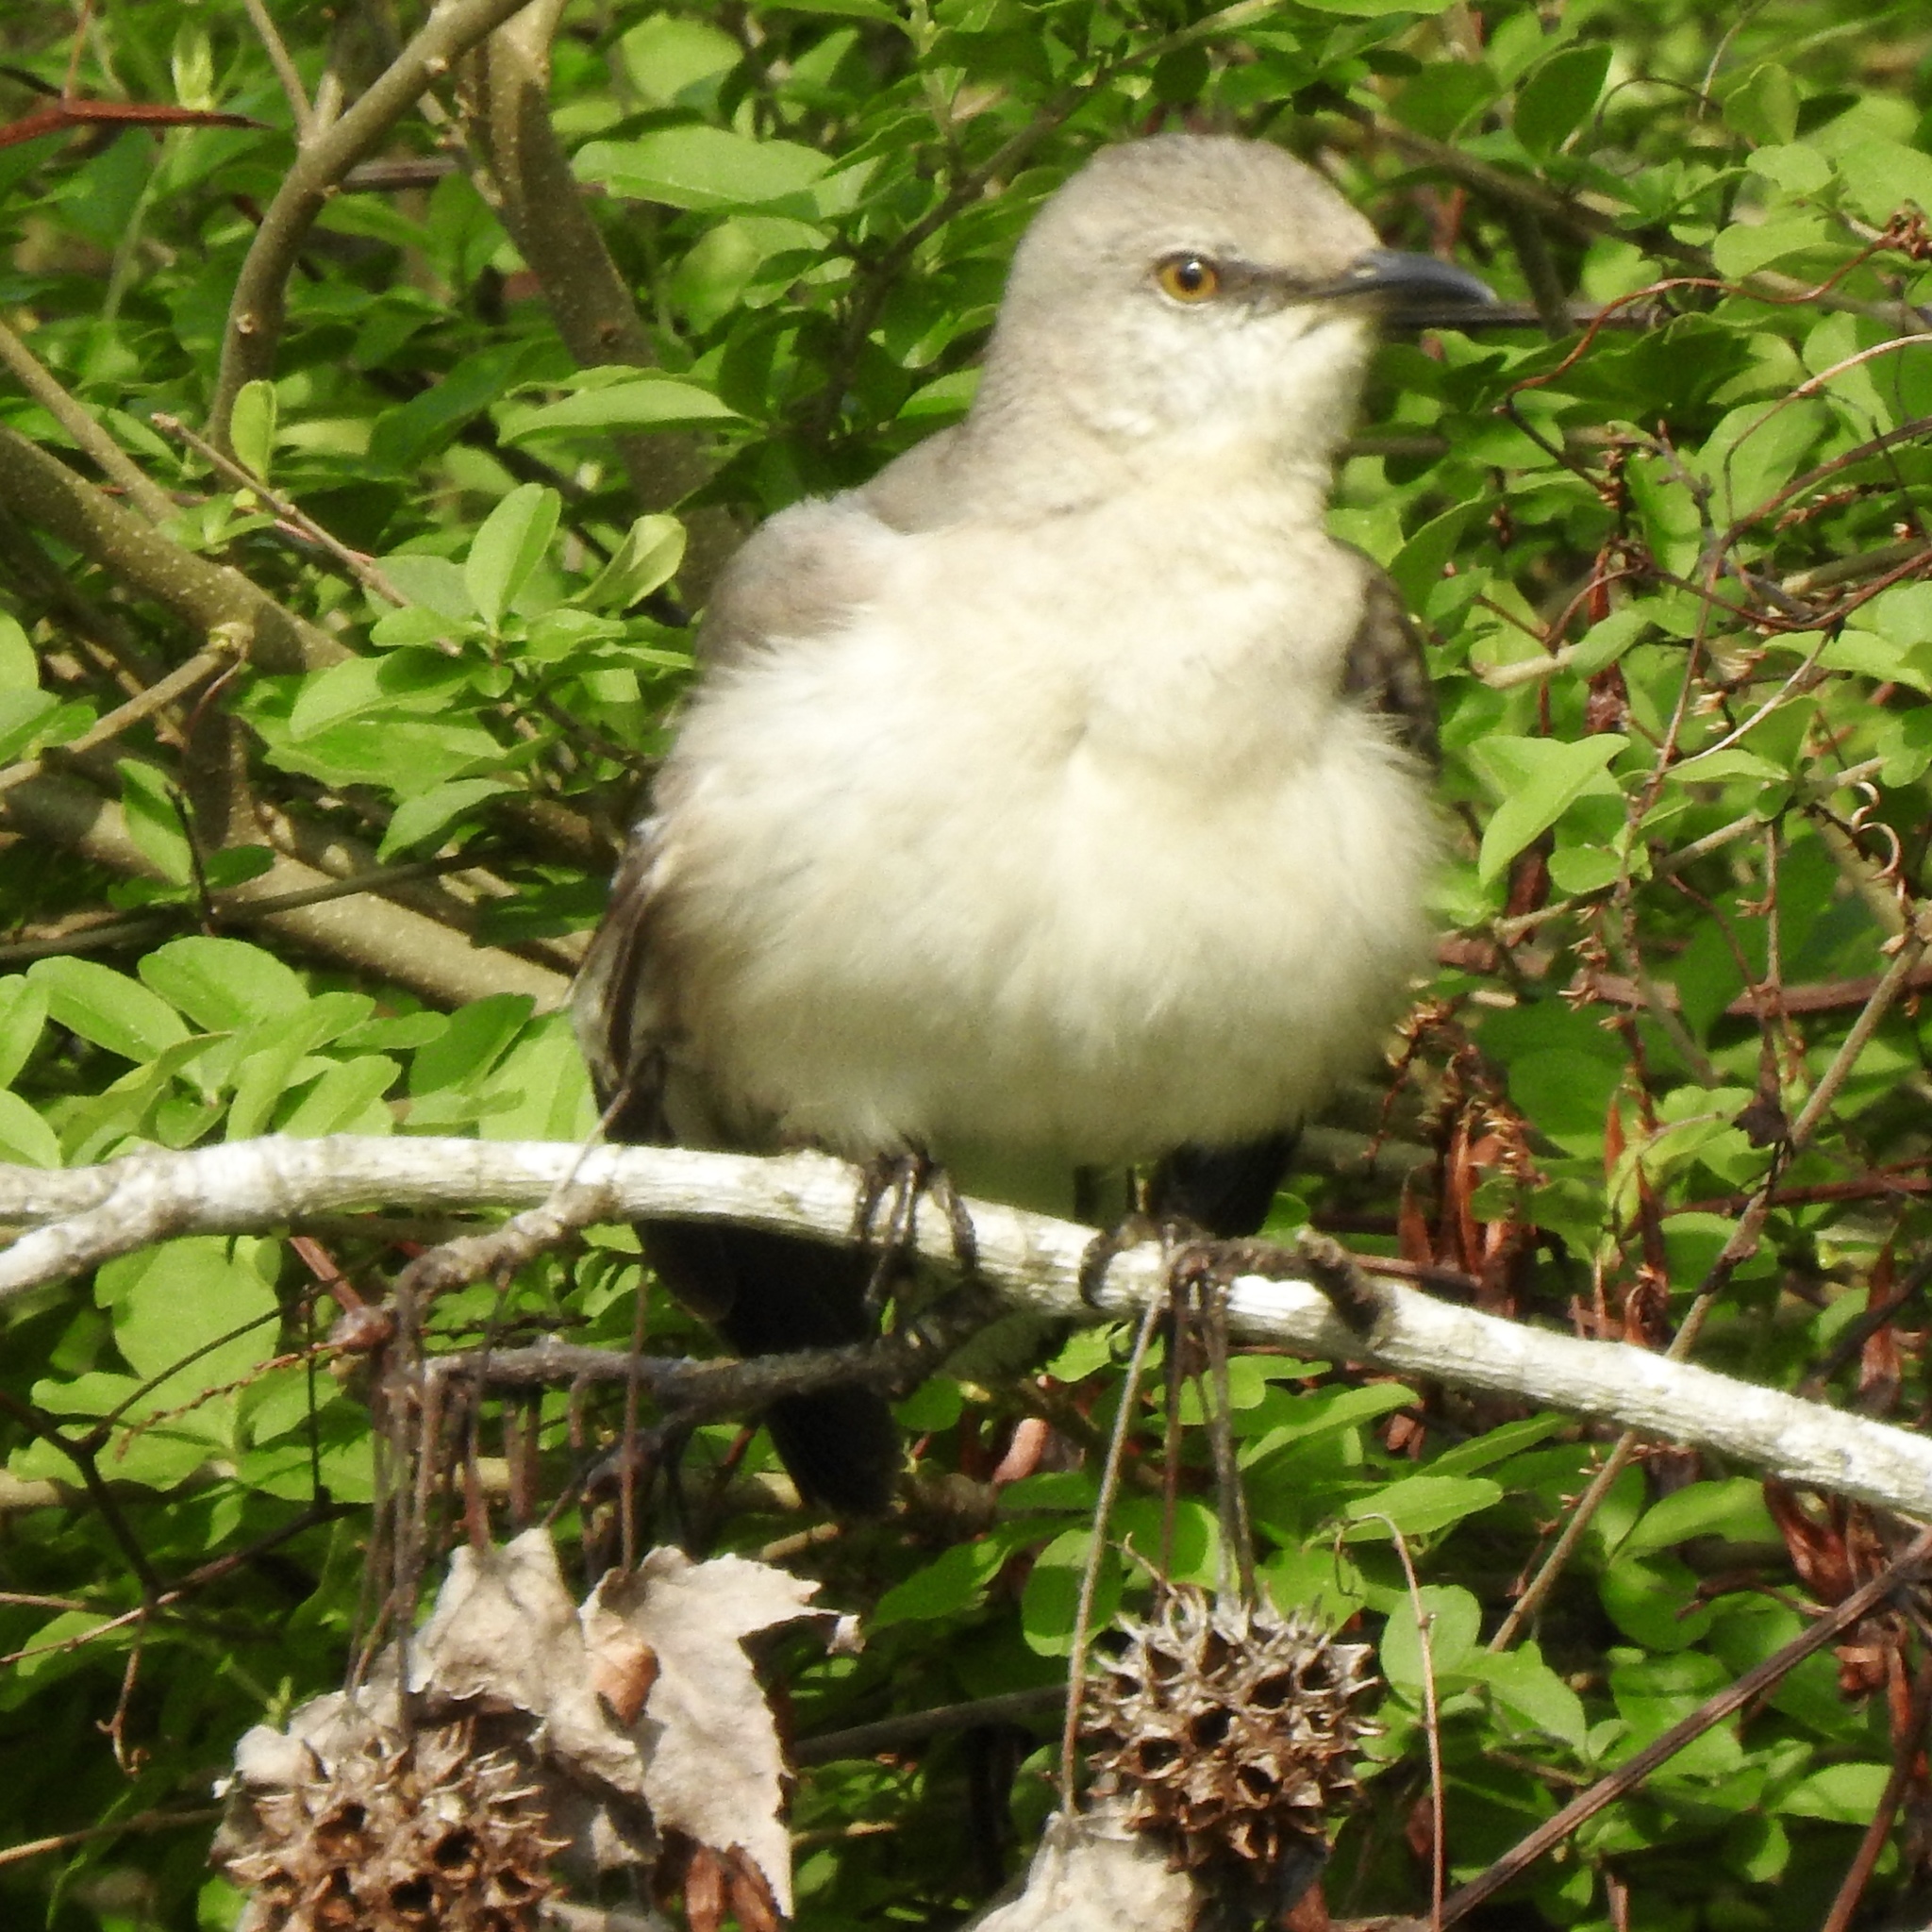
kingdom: Animalia
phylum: Chordata
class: Aves
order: Passeriformes
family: Mimidae
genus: Mimus
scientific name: Mimus polyglottos
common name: Northern mockingbird
